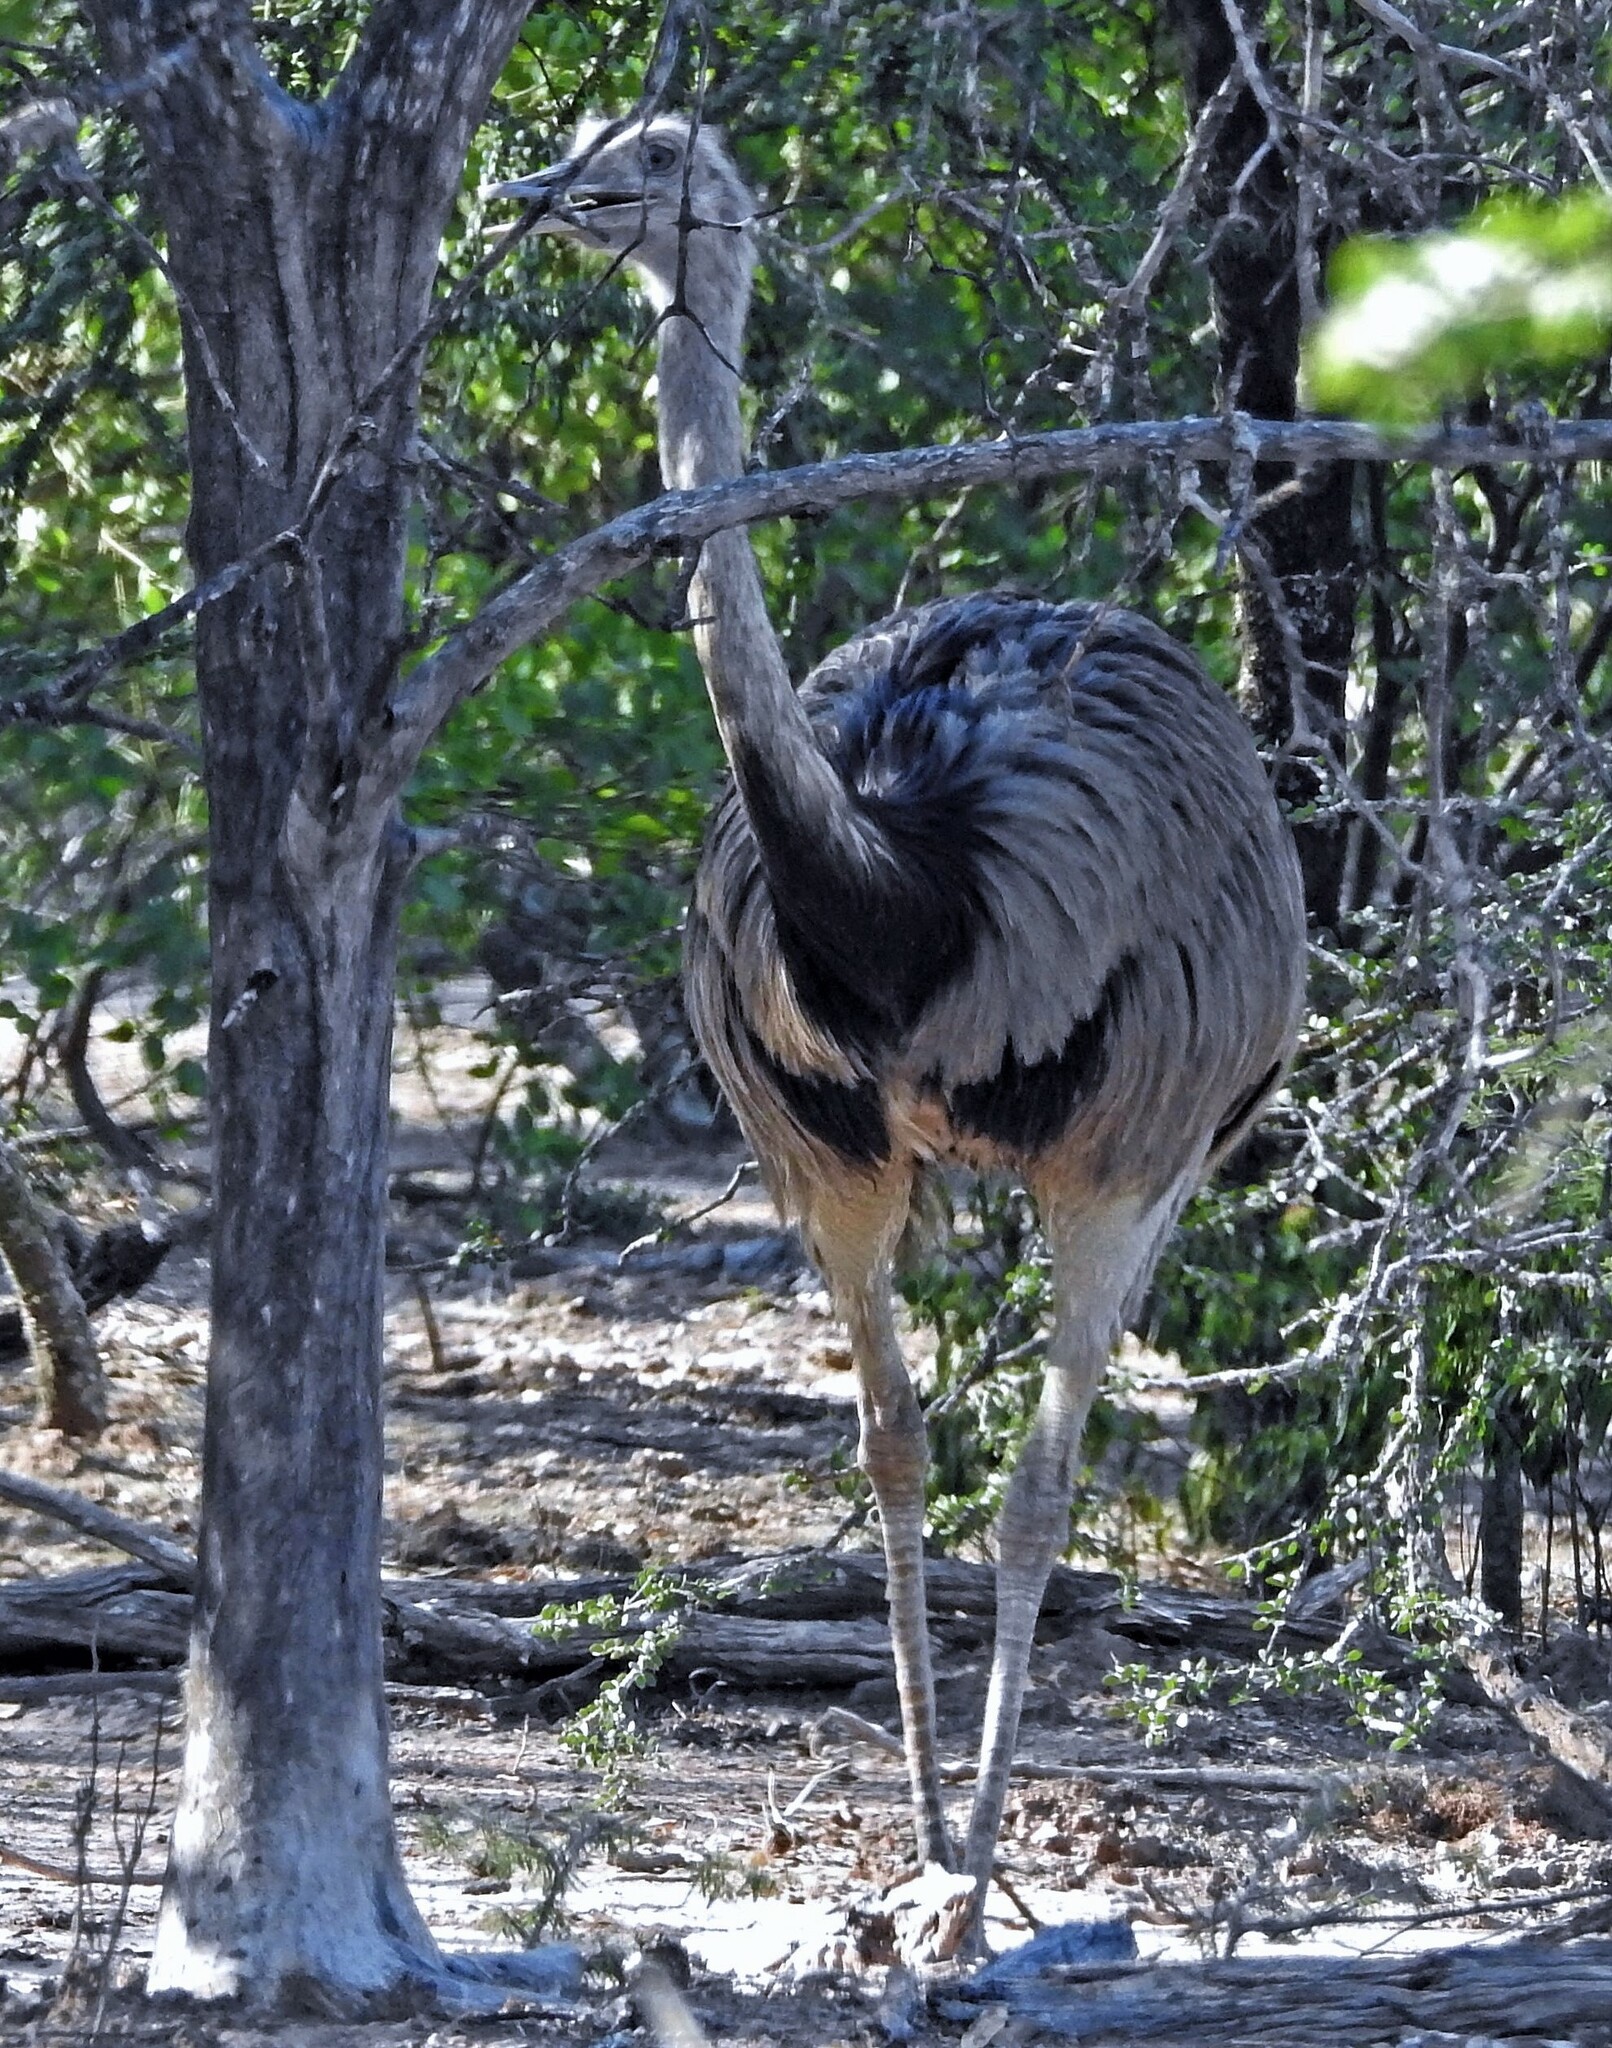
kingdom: Animalia
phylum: Chordata
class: Aves
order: Rheiformes
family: Rheidae
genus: Rhea
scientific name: Rhea americana
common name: Greater rhea
